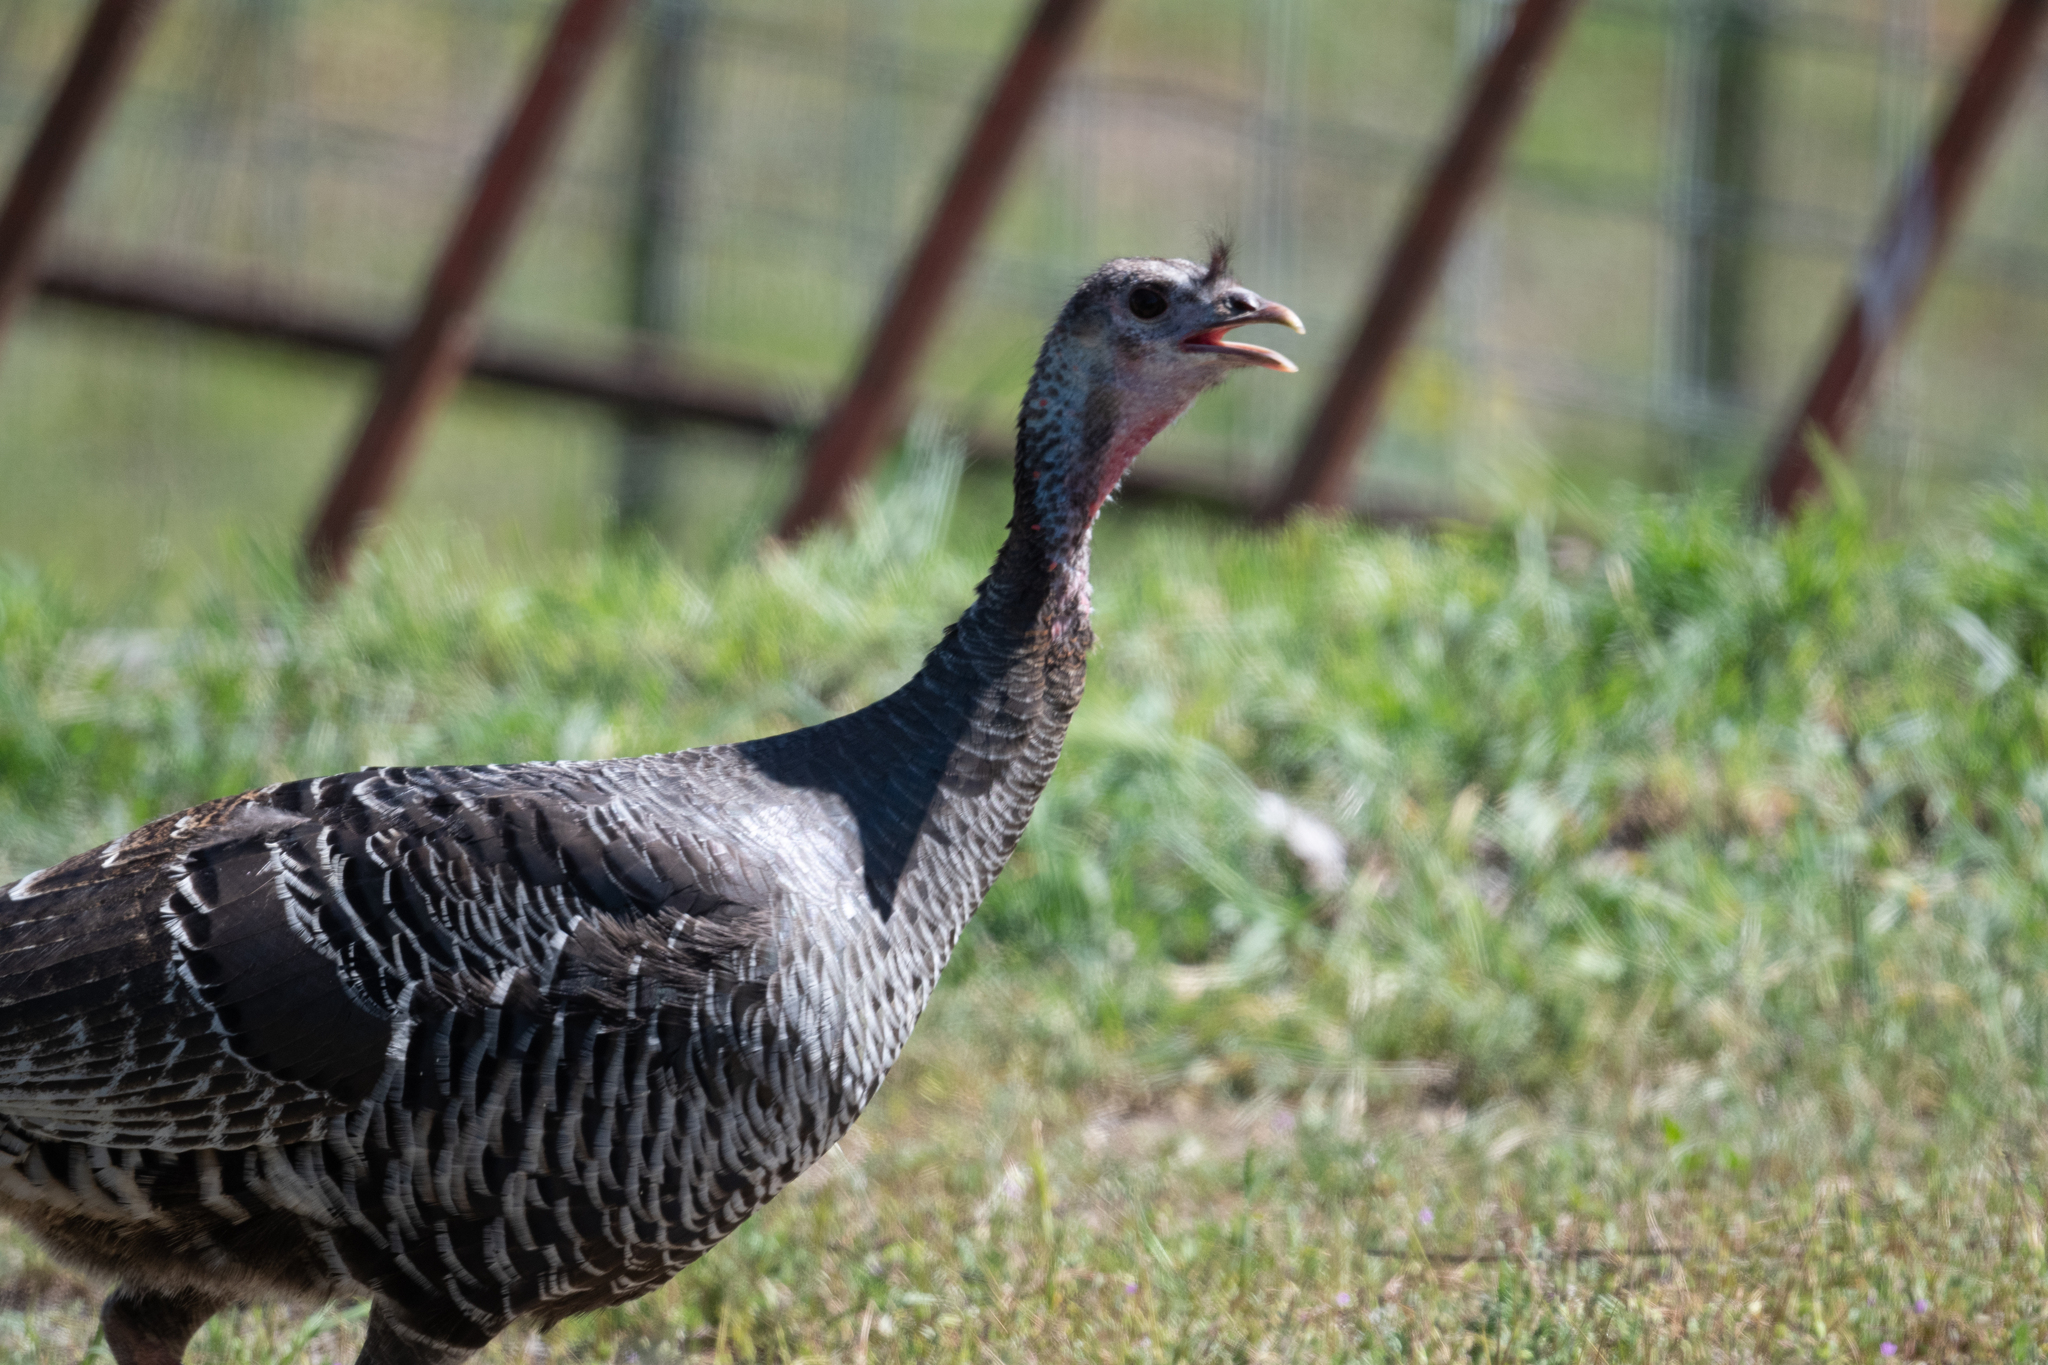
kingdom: Animalia
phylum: Chordata
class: Aves
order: Galliformes
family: Phasianidae
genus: Meleagris
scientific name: Meleagris gallopavo
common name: Wild turkey
